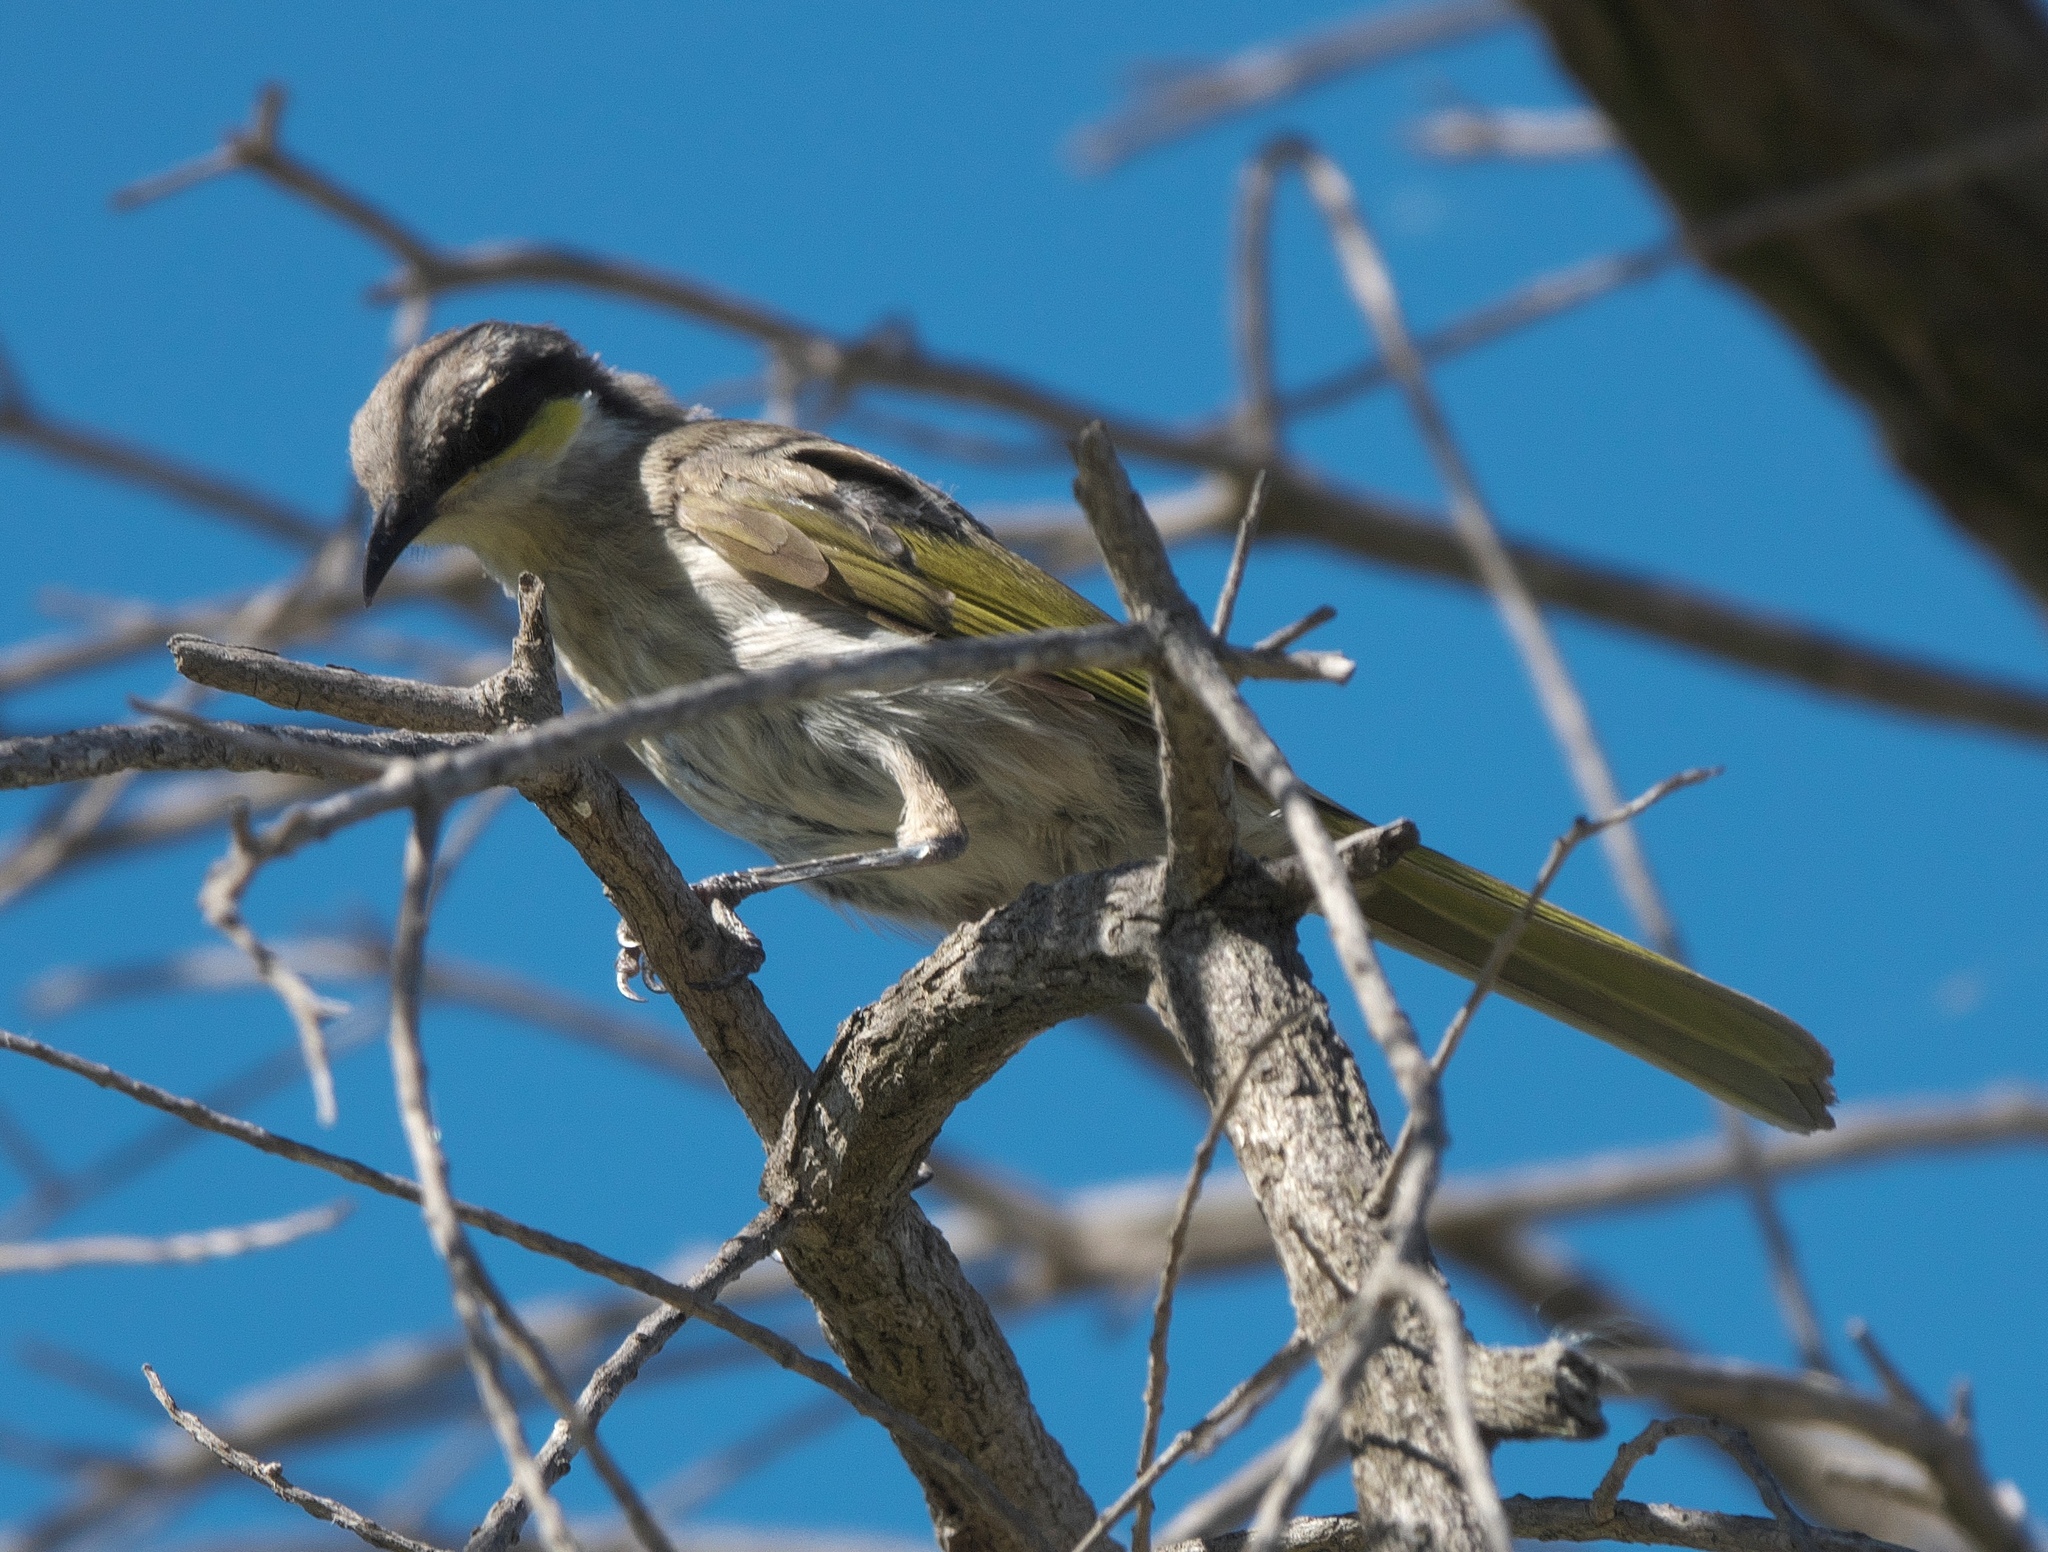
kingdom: Animalia
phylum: Chordata
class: Aves
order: Passeriformes
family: Meliphagidae
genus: Gavicalis
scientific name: Gavicalis virescens
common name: Singing honeyeater
